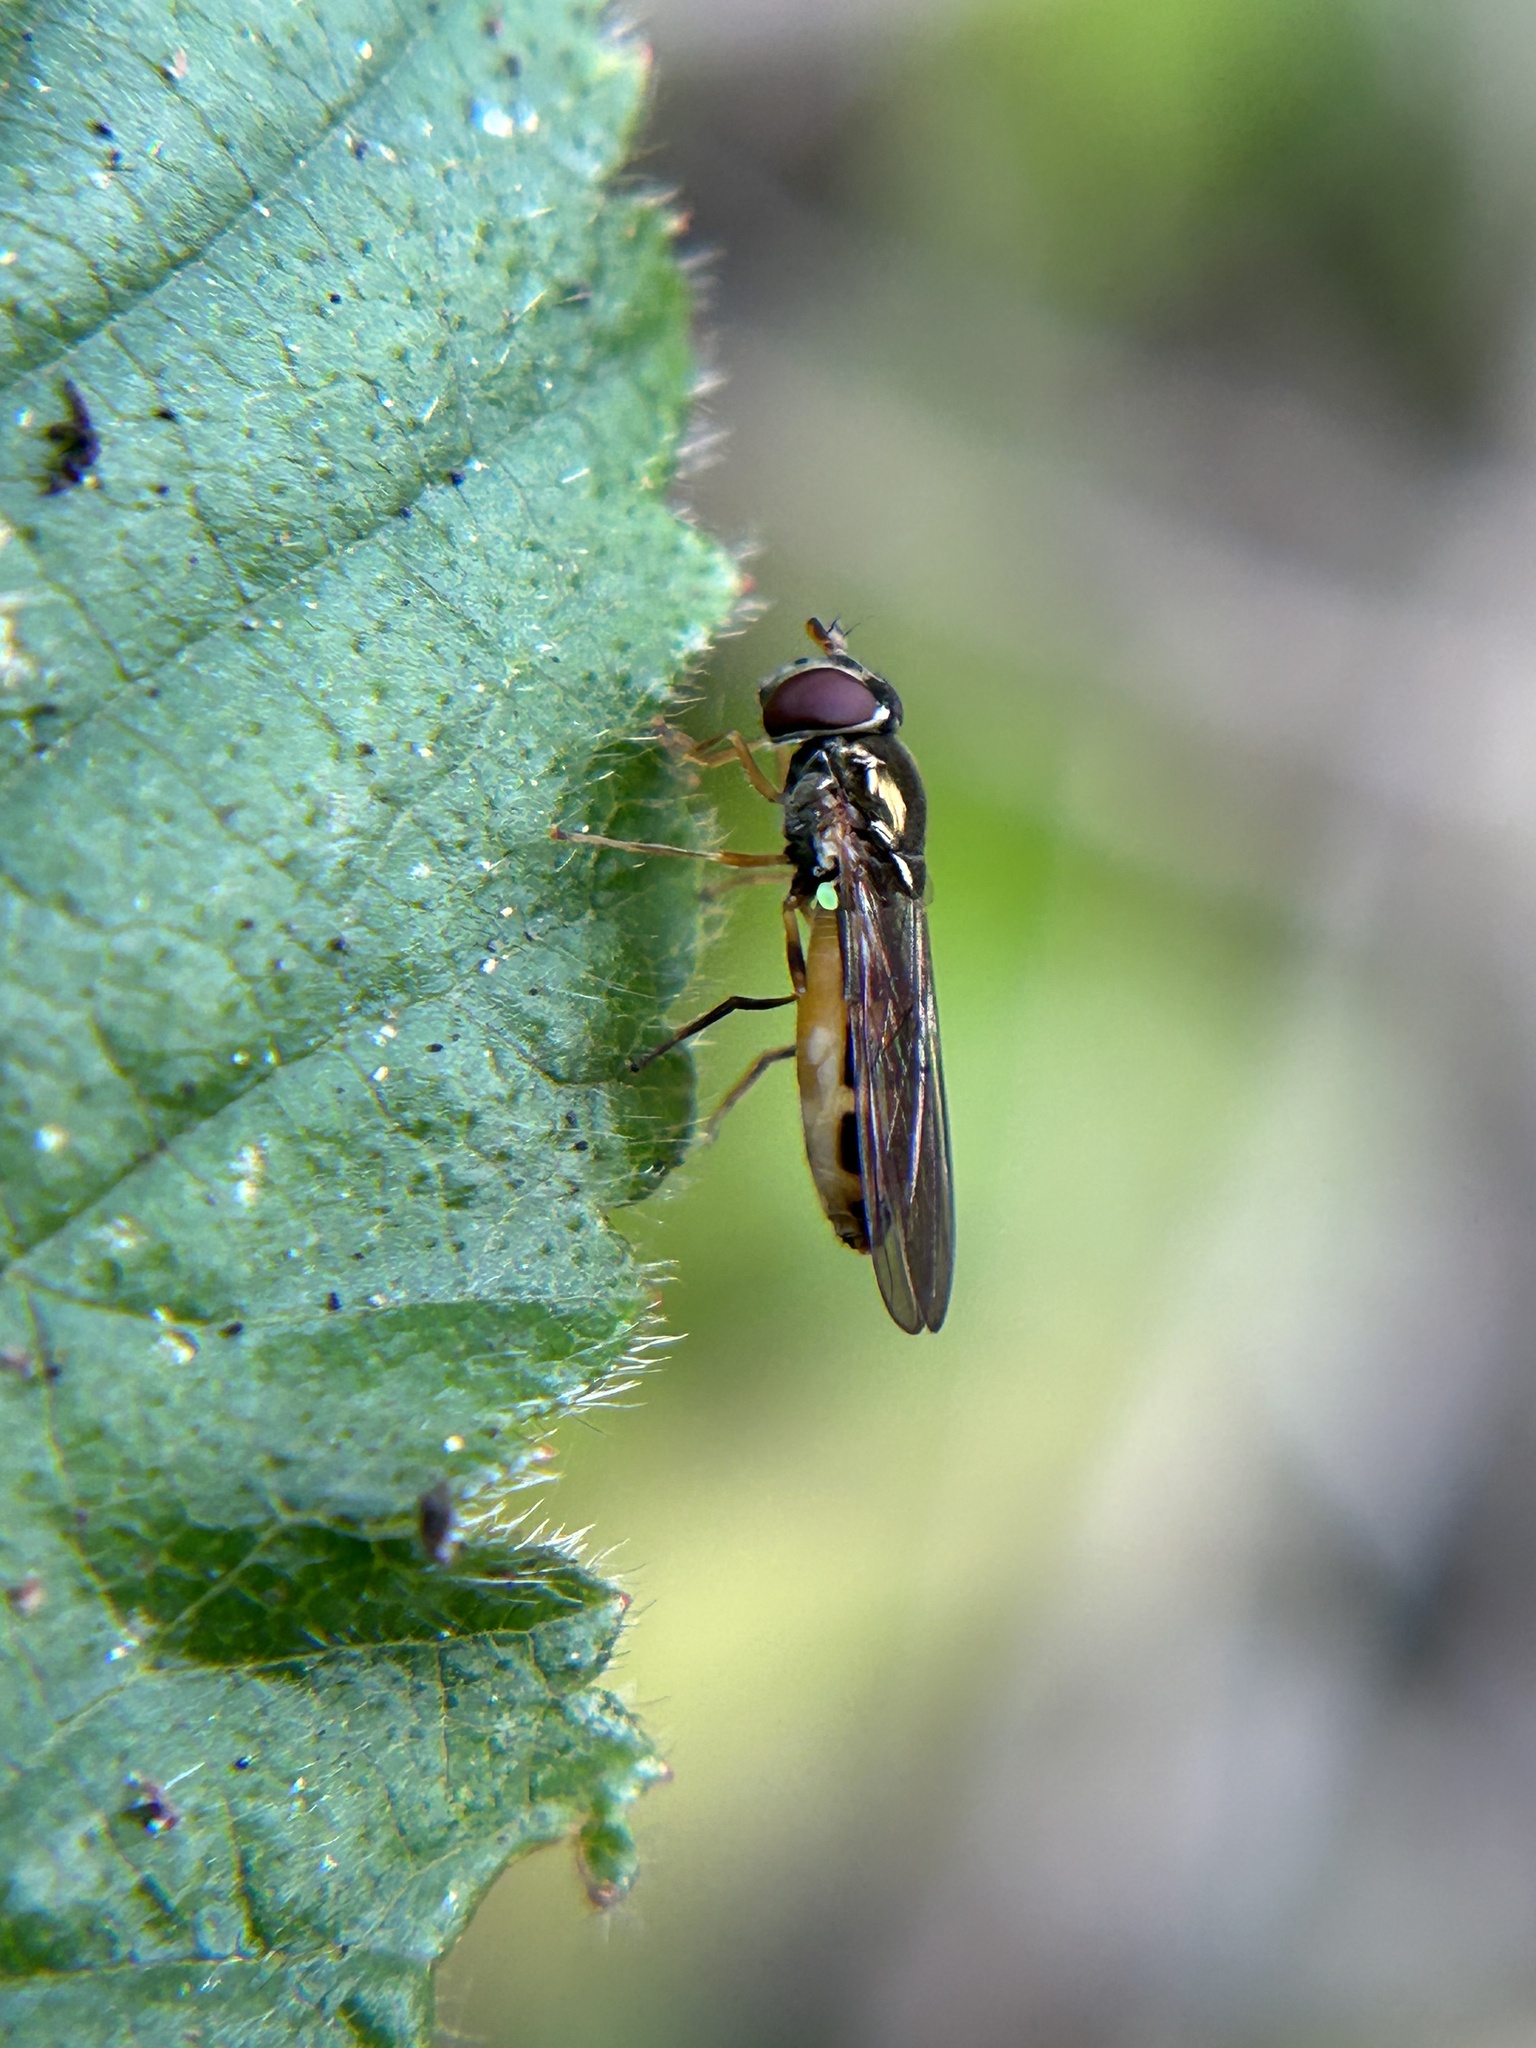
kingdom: Animalia
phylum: Arthropoda
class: Insecta
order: Diptera
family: Syrphidae
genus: Melanostoma
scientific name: Melanostoma mellina
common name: Hover fly
